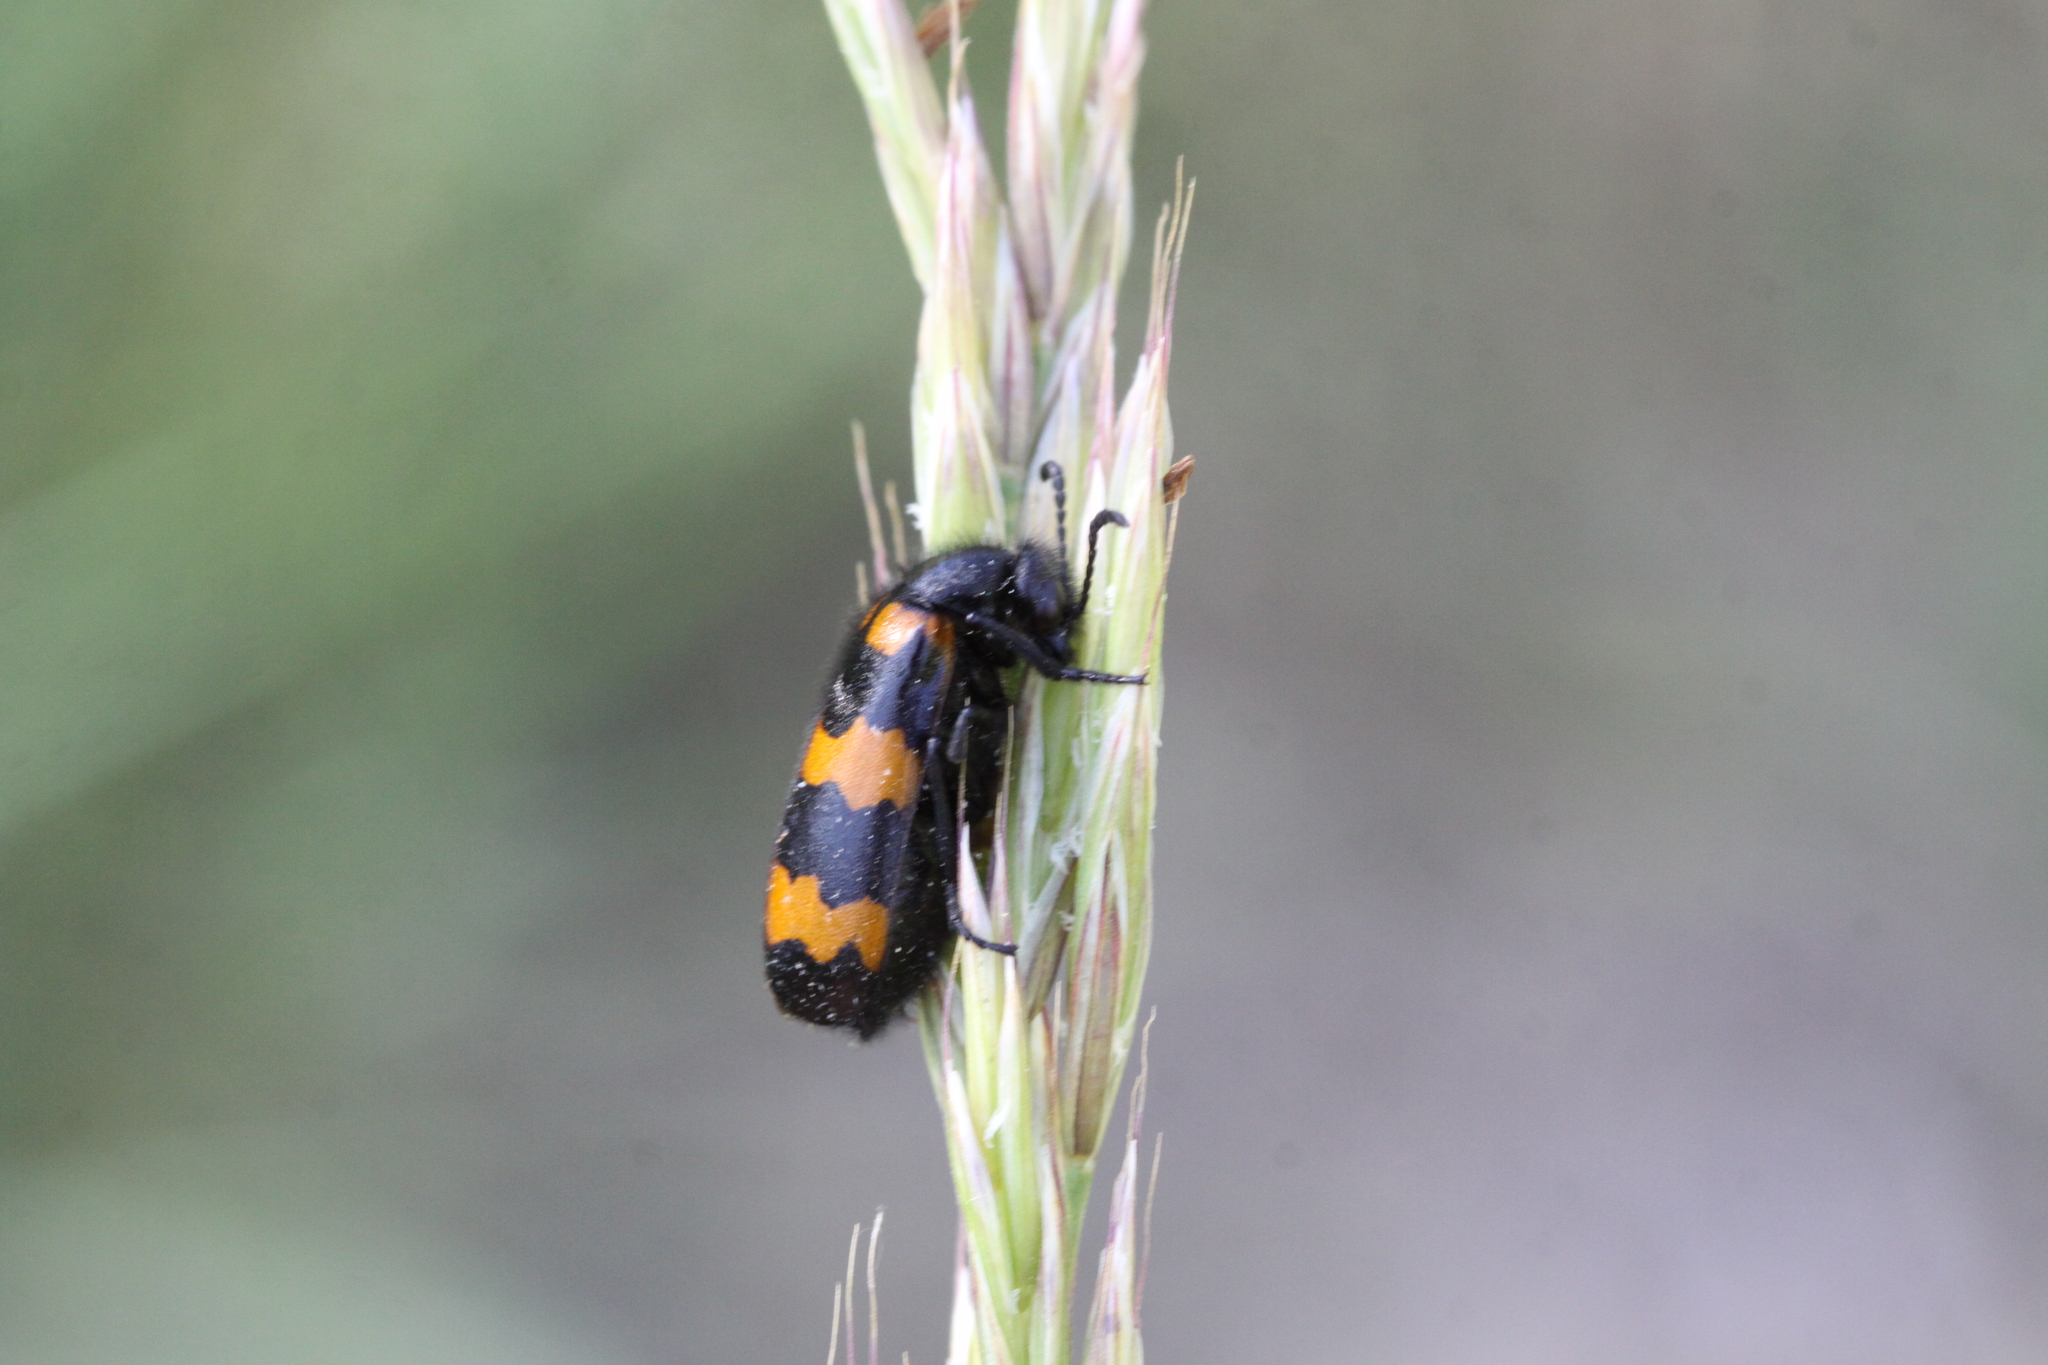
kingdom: Animalia
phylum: Arthropoda
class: Insecta
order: Coleoptera
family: Meloidae
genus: Mylabris
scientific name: Mylabris variabilis
